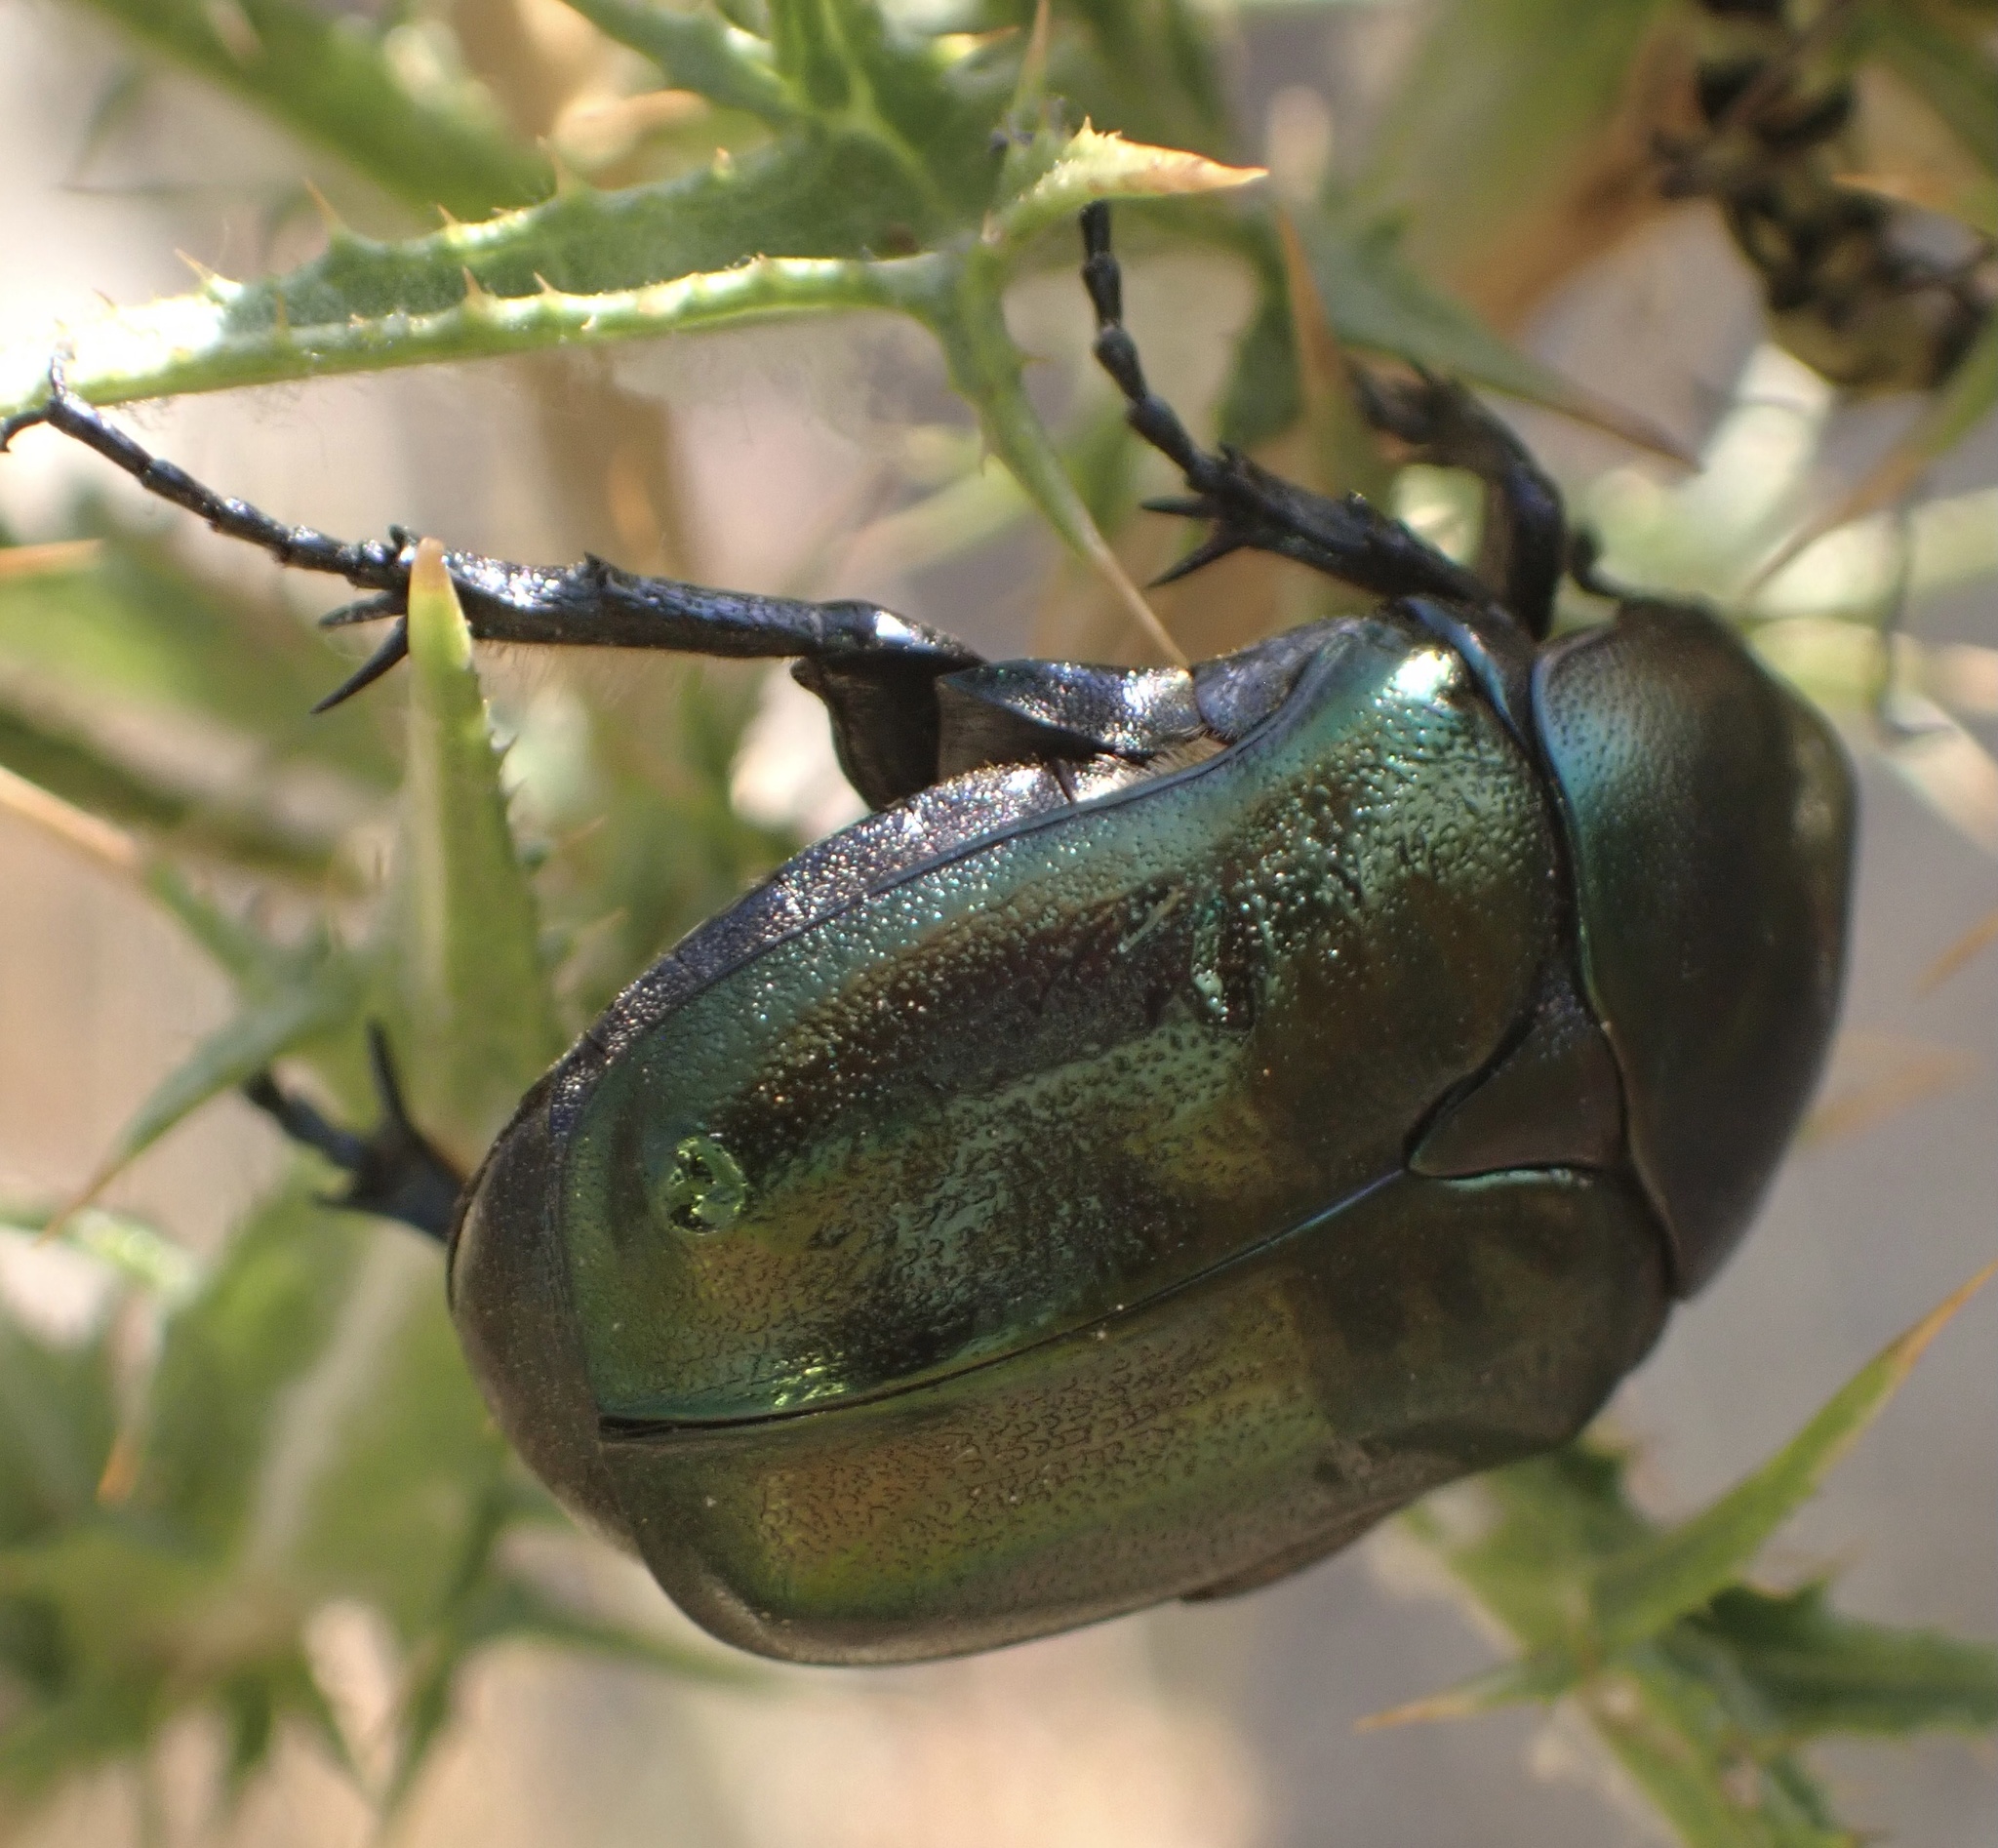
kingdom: Animalia
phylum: Arthropoda
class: Insecta
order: Coleoptera
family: Scarabaeidae
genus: Protaetia
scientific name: Protaetia angustata
